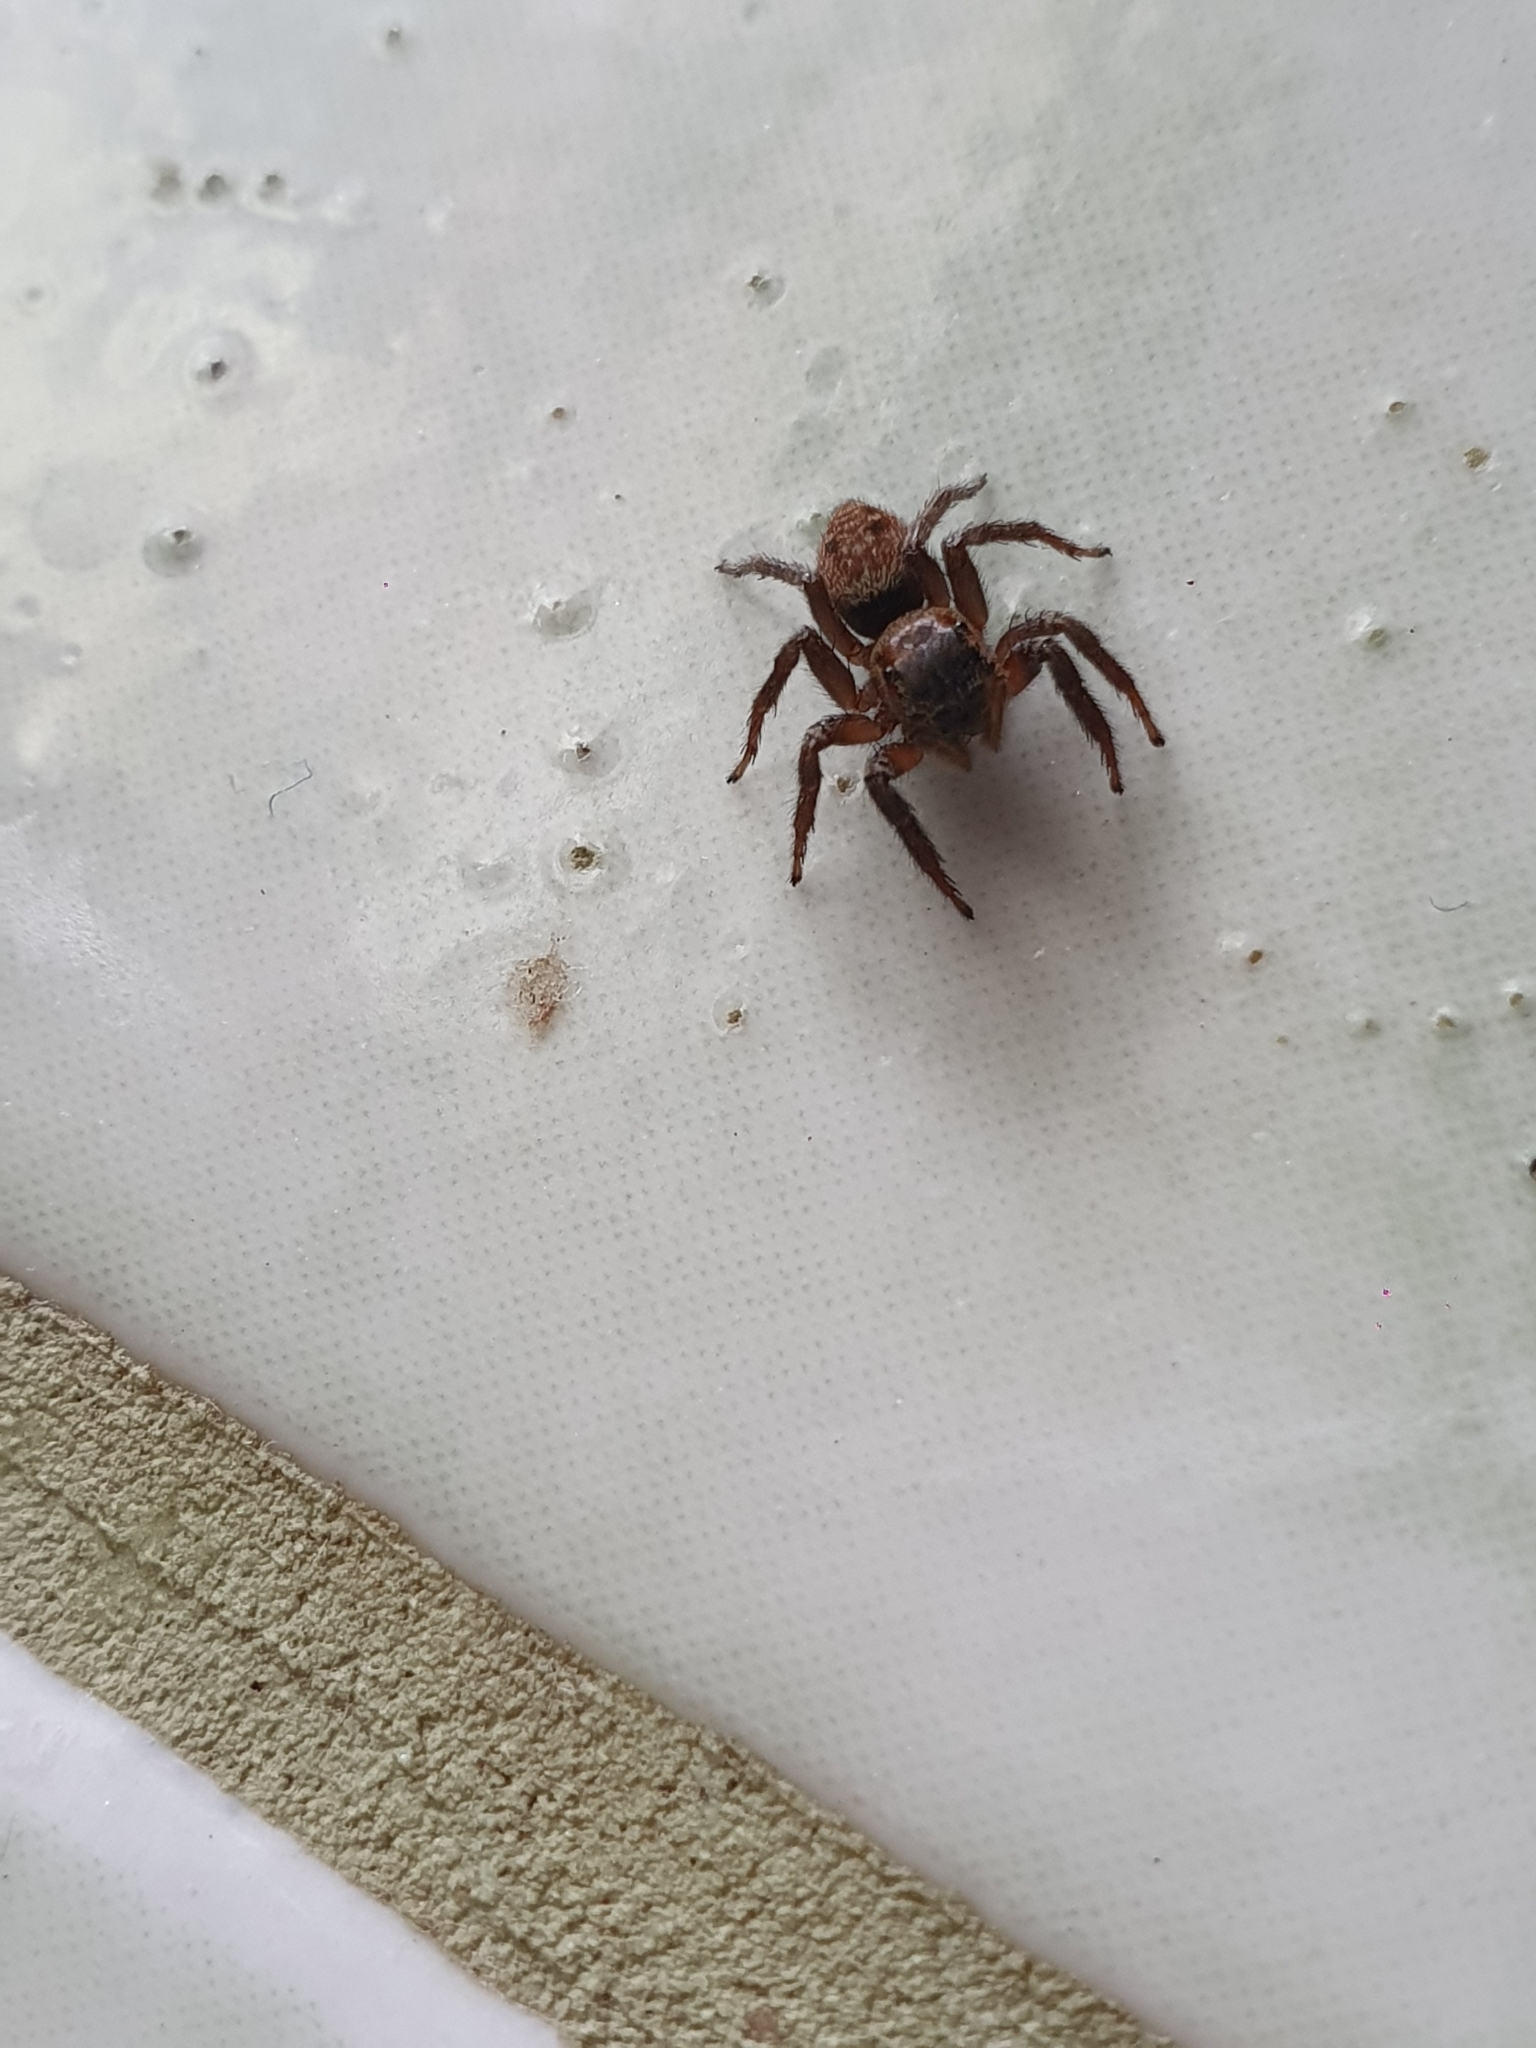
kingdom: Animalia
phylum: Arthropoda
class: Arachnida
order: Araneae
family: Salticidae
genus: Hasarius
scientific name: Hasarius adansoni
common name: Jumping spider
